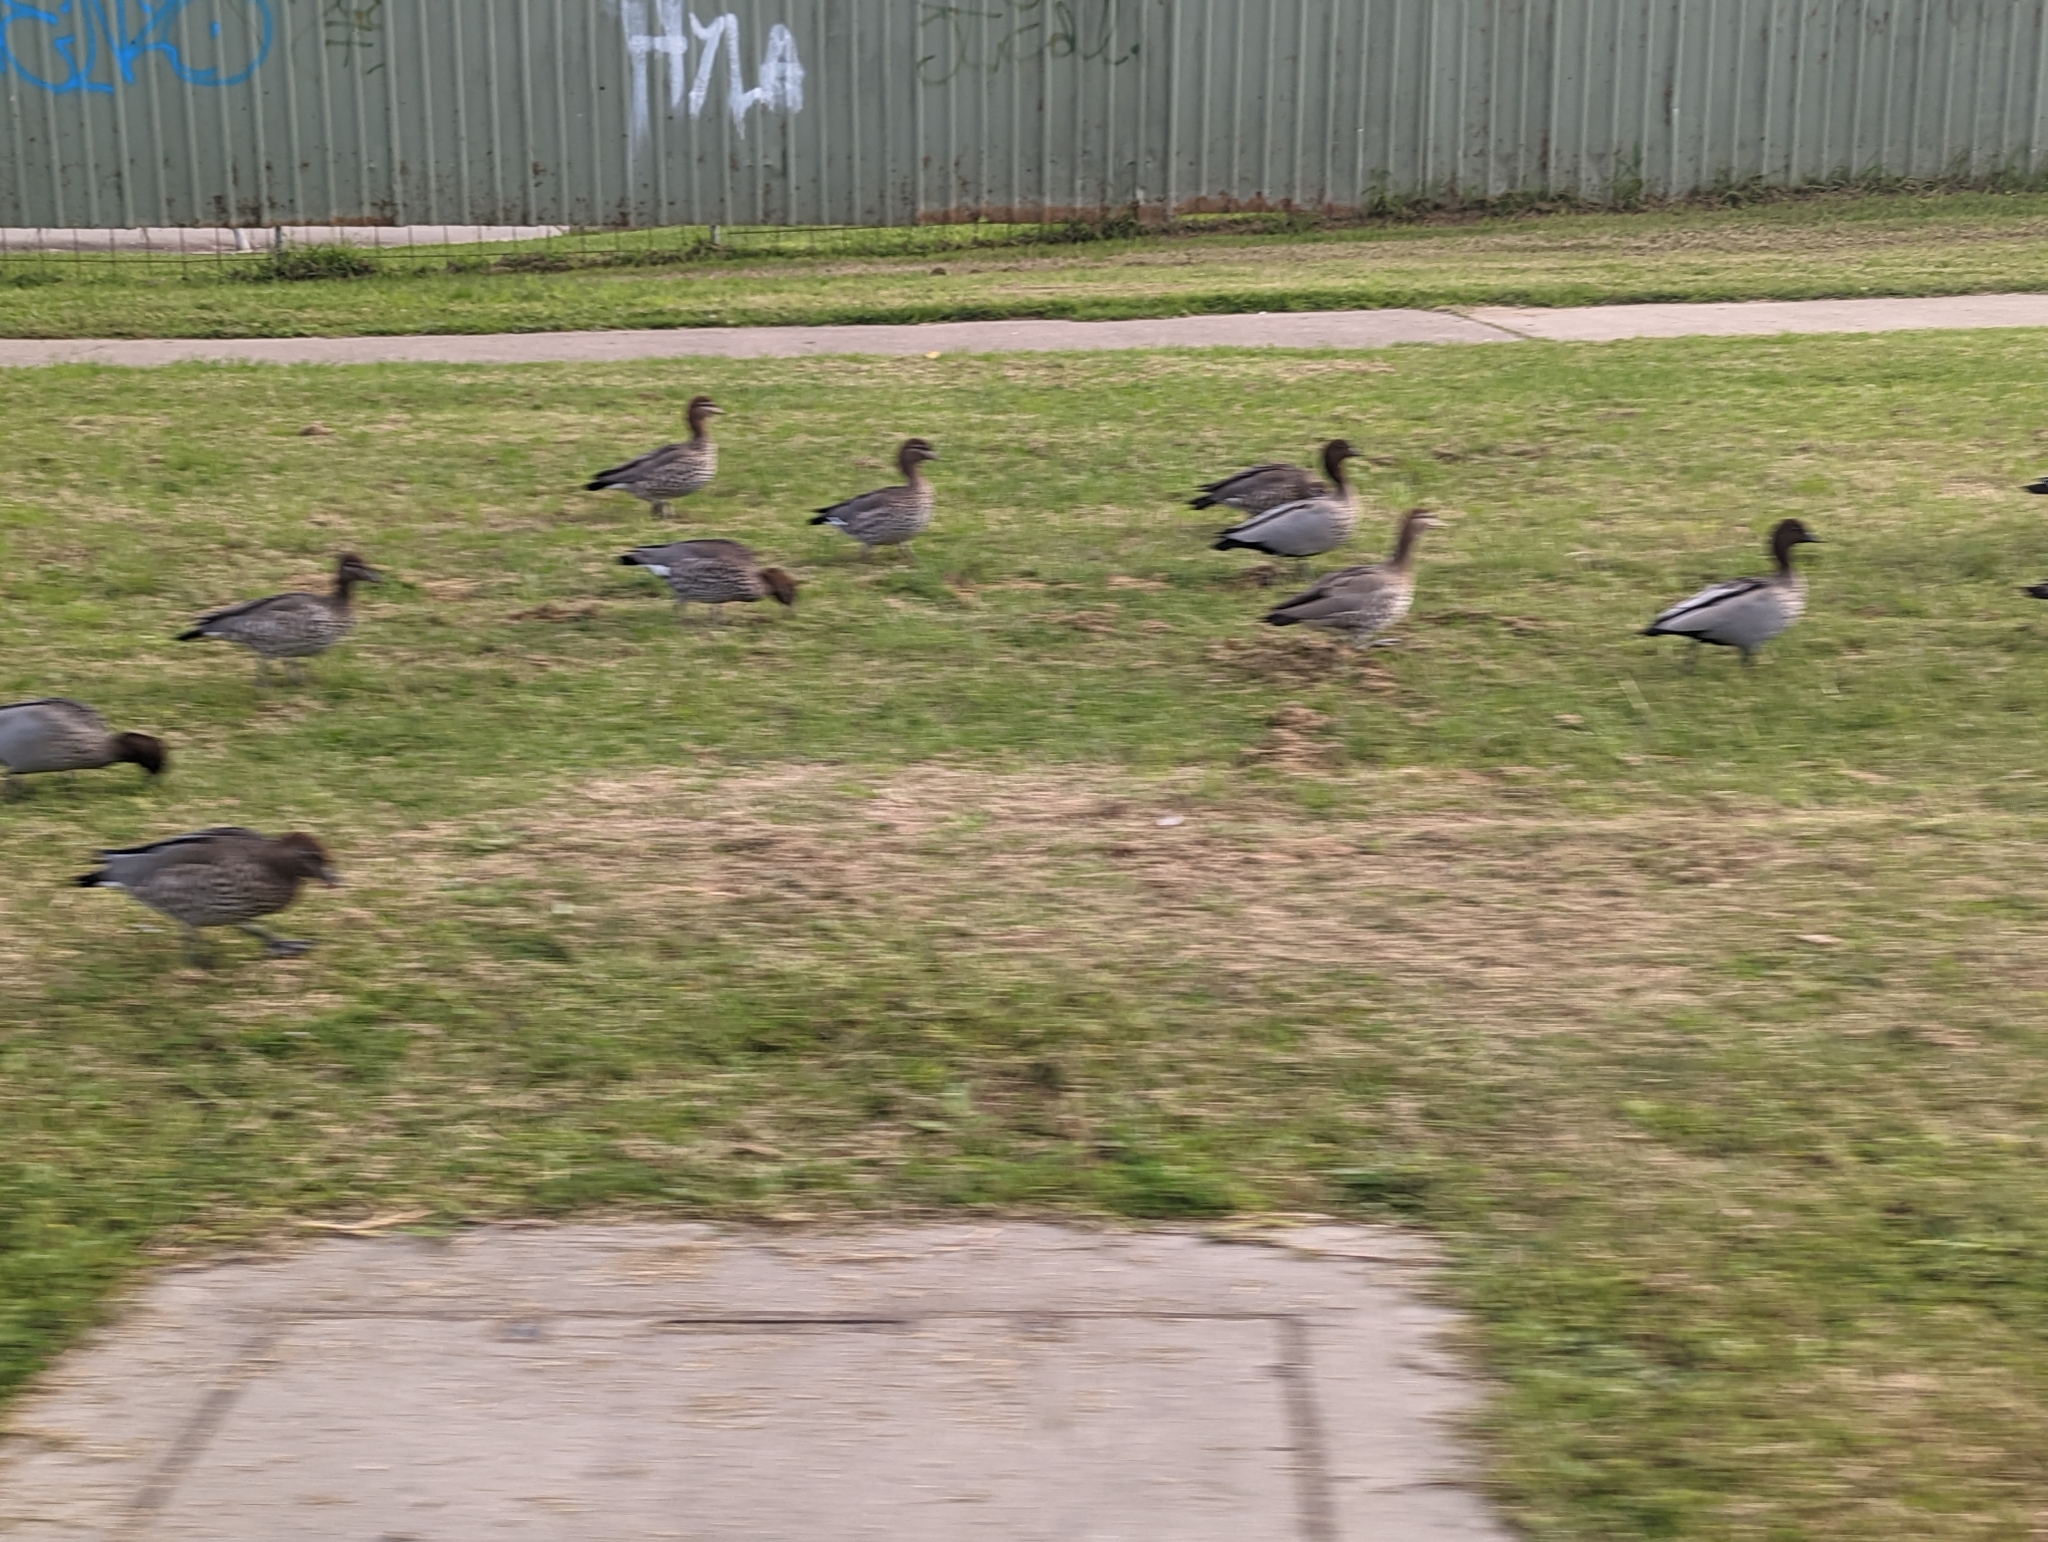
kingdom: Animalia
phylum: Chordata
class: Aves
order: Anseriformes
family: Anatidae
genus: Chenonetta
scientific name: Chenonetta jubata
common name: Maned duck
